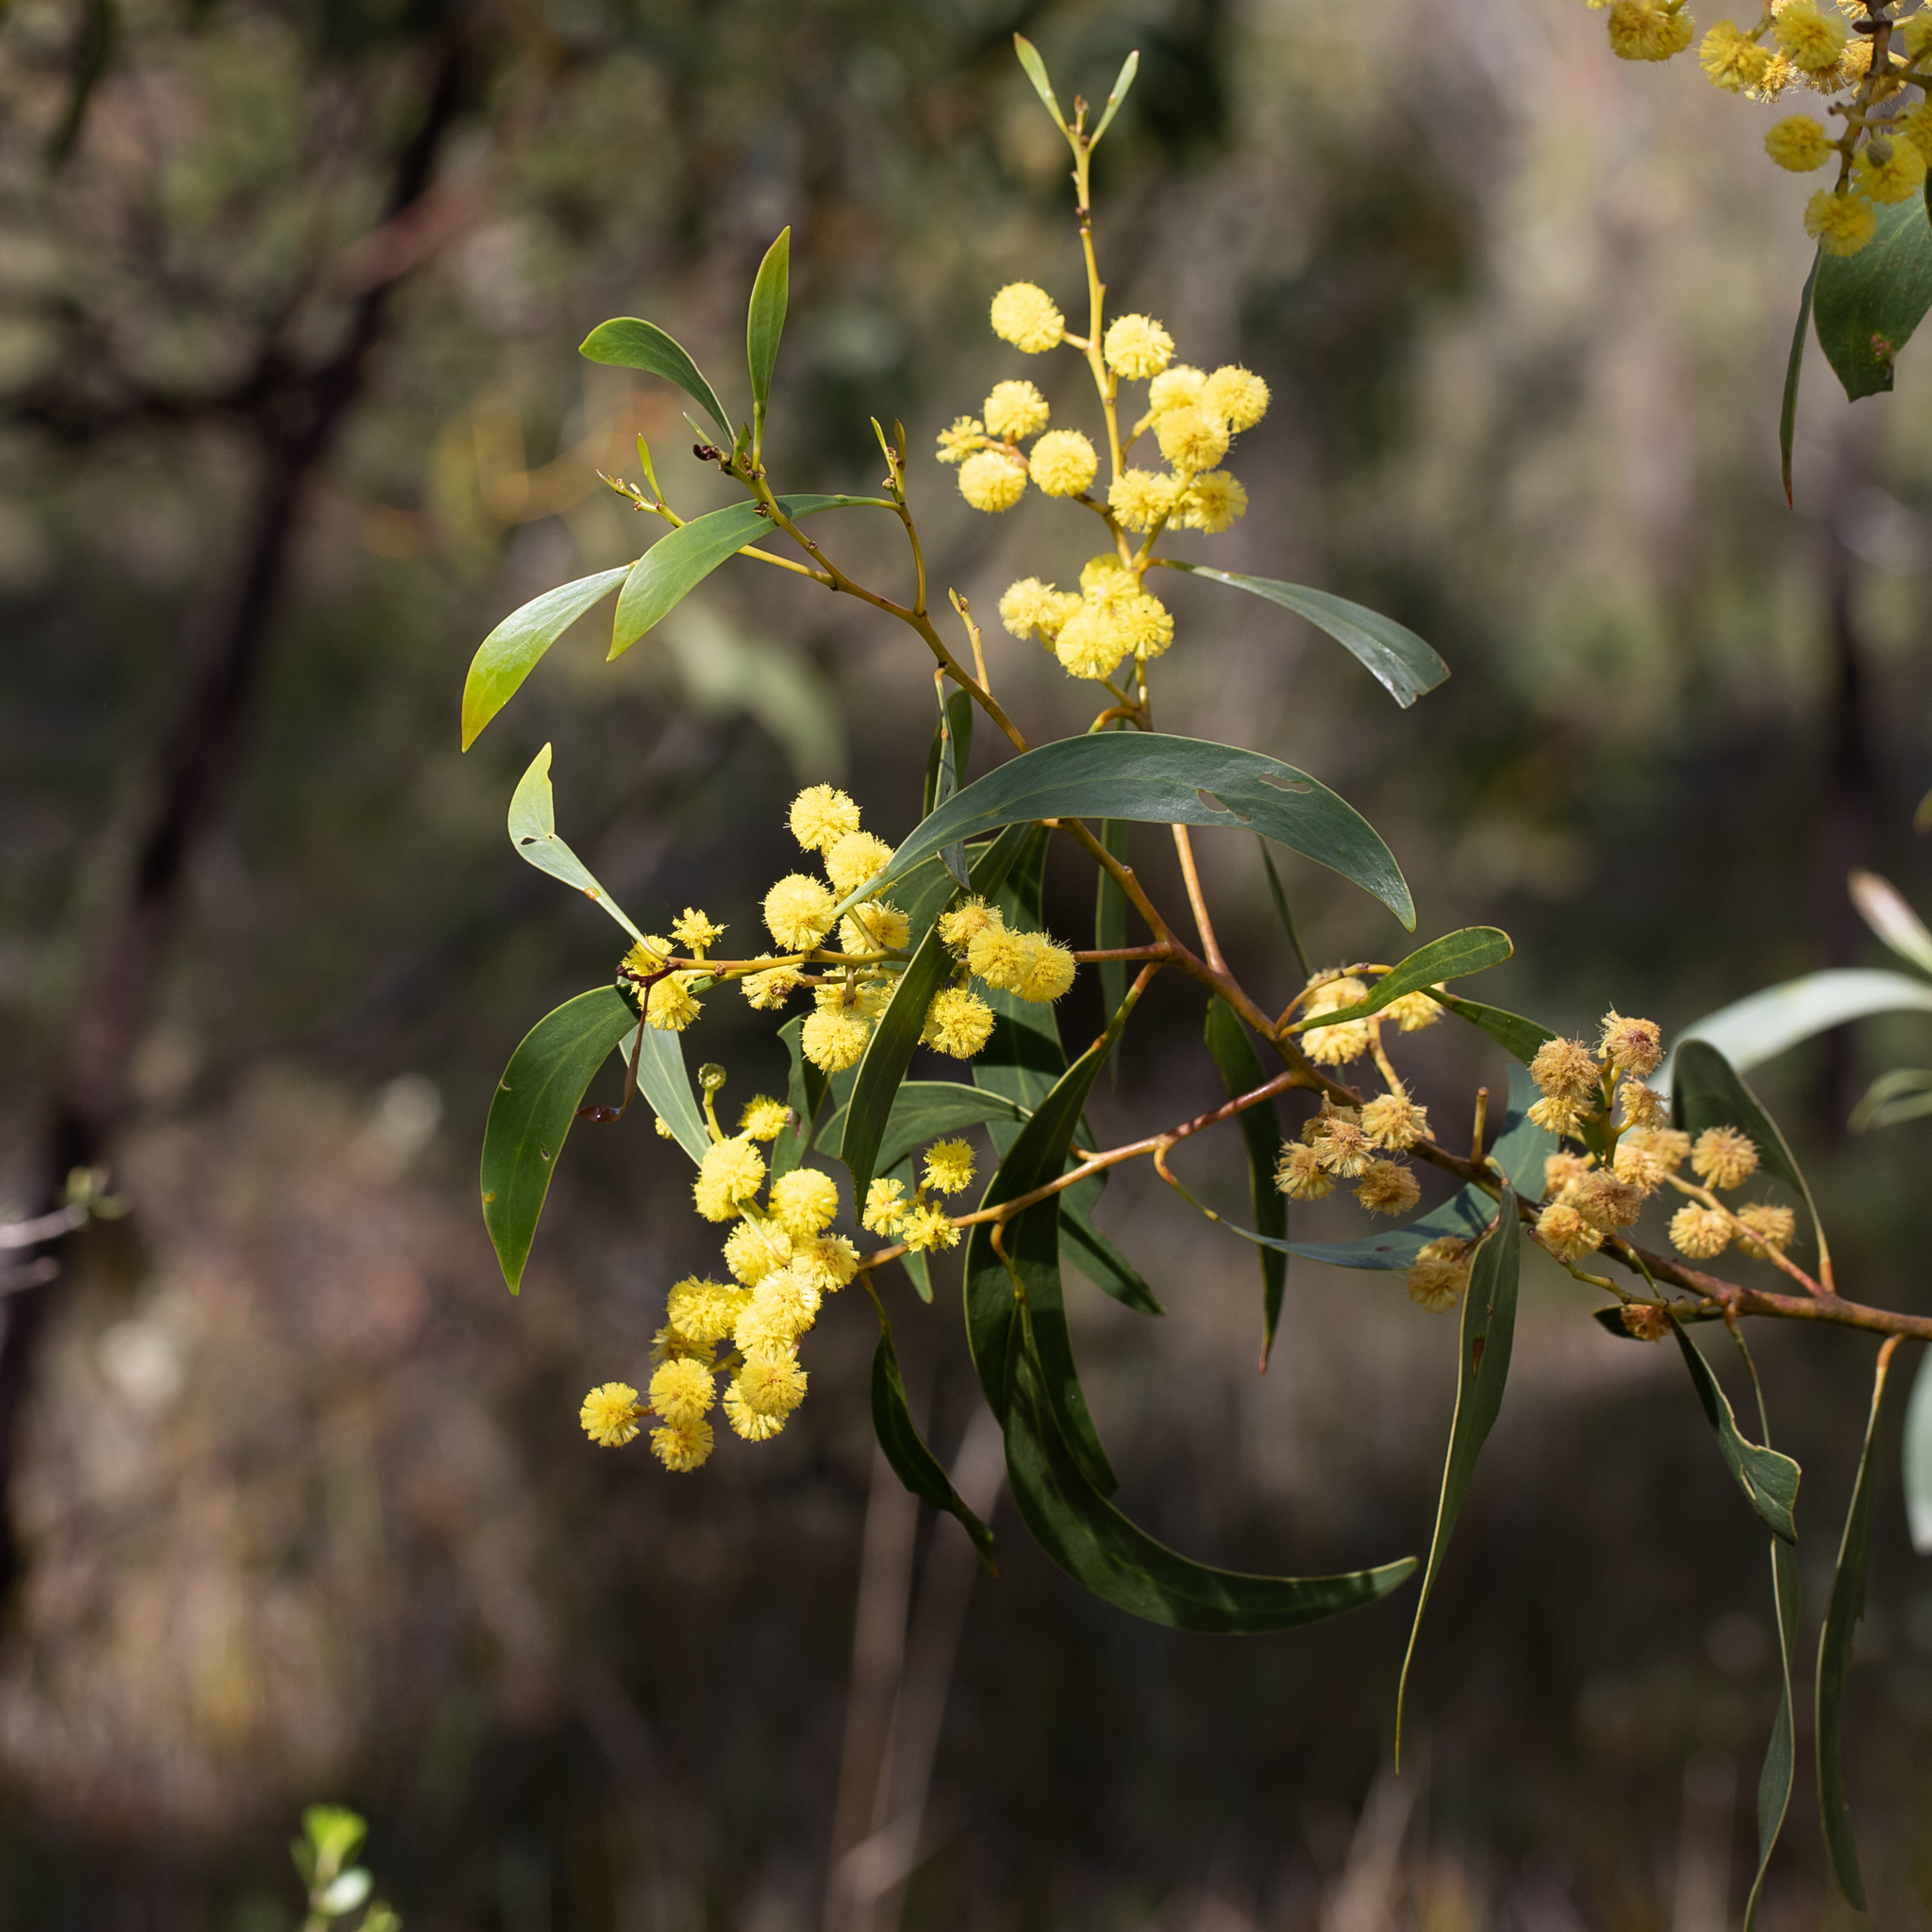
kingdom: Plantae
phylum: Tracheophyta
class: Magnoliopsida
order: Fabales
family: Fabaceae
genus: Acacia
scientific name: Acacia pycnantha
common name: Golden wattle
